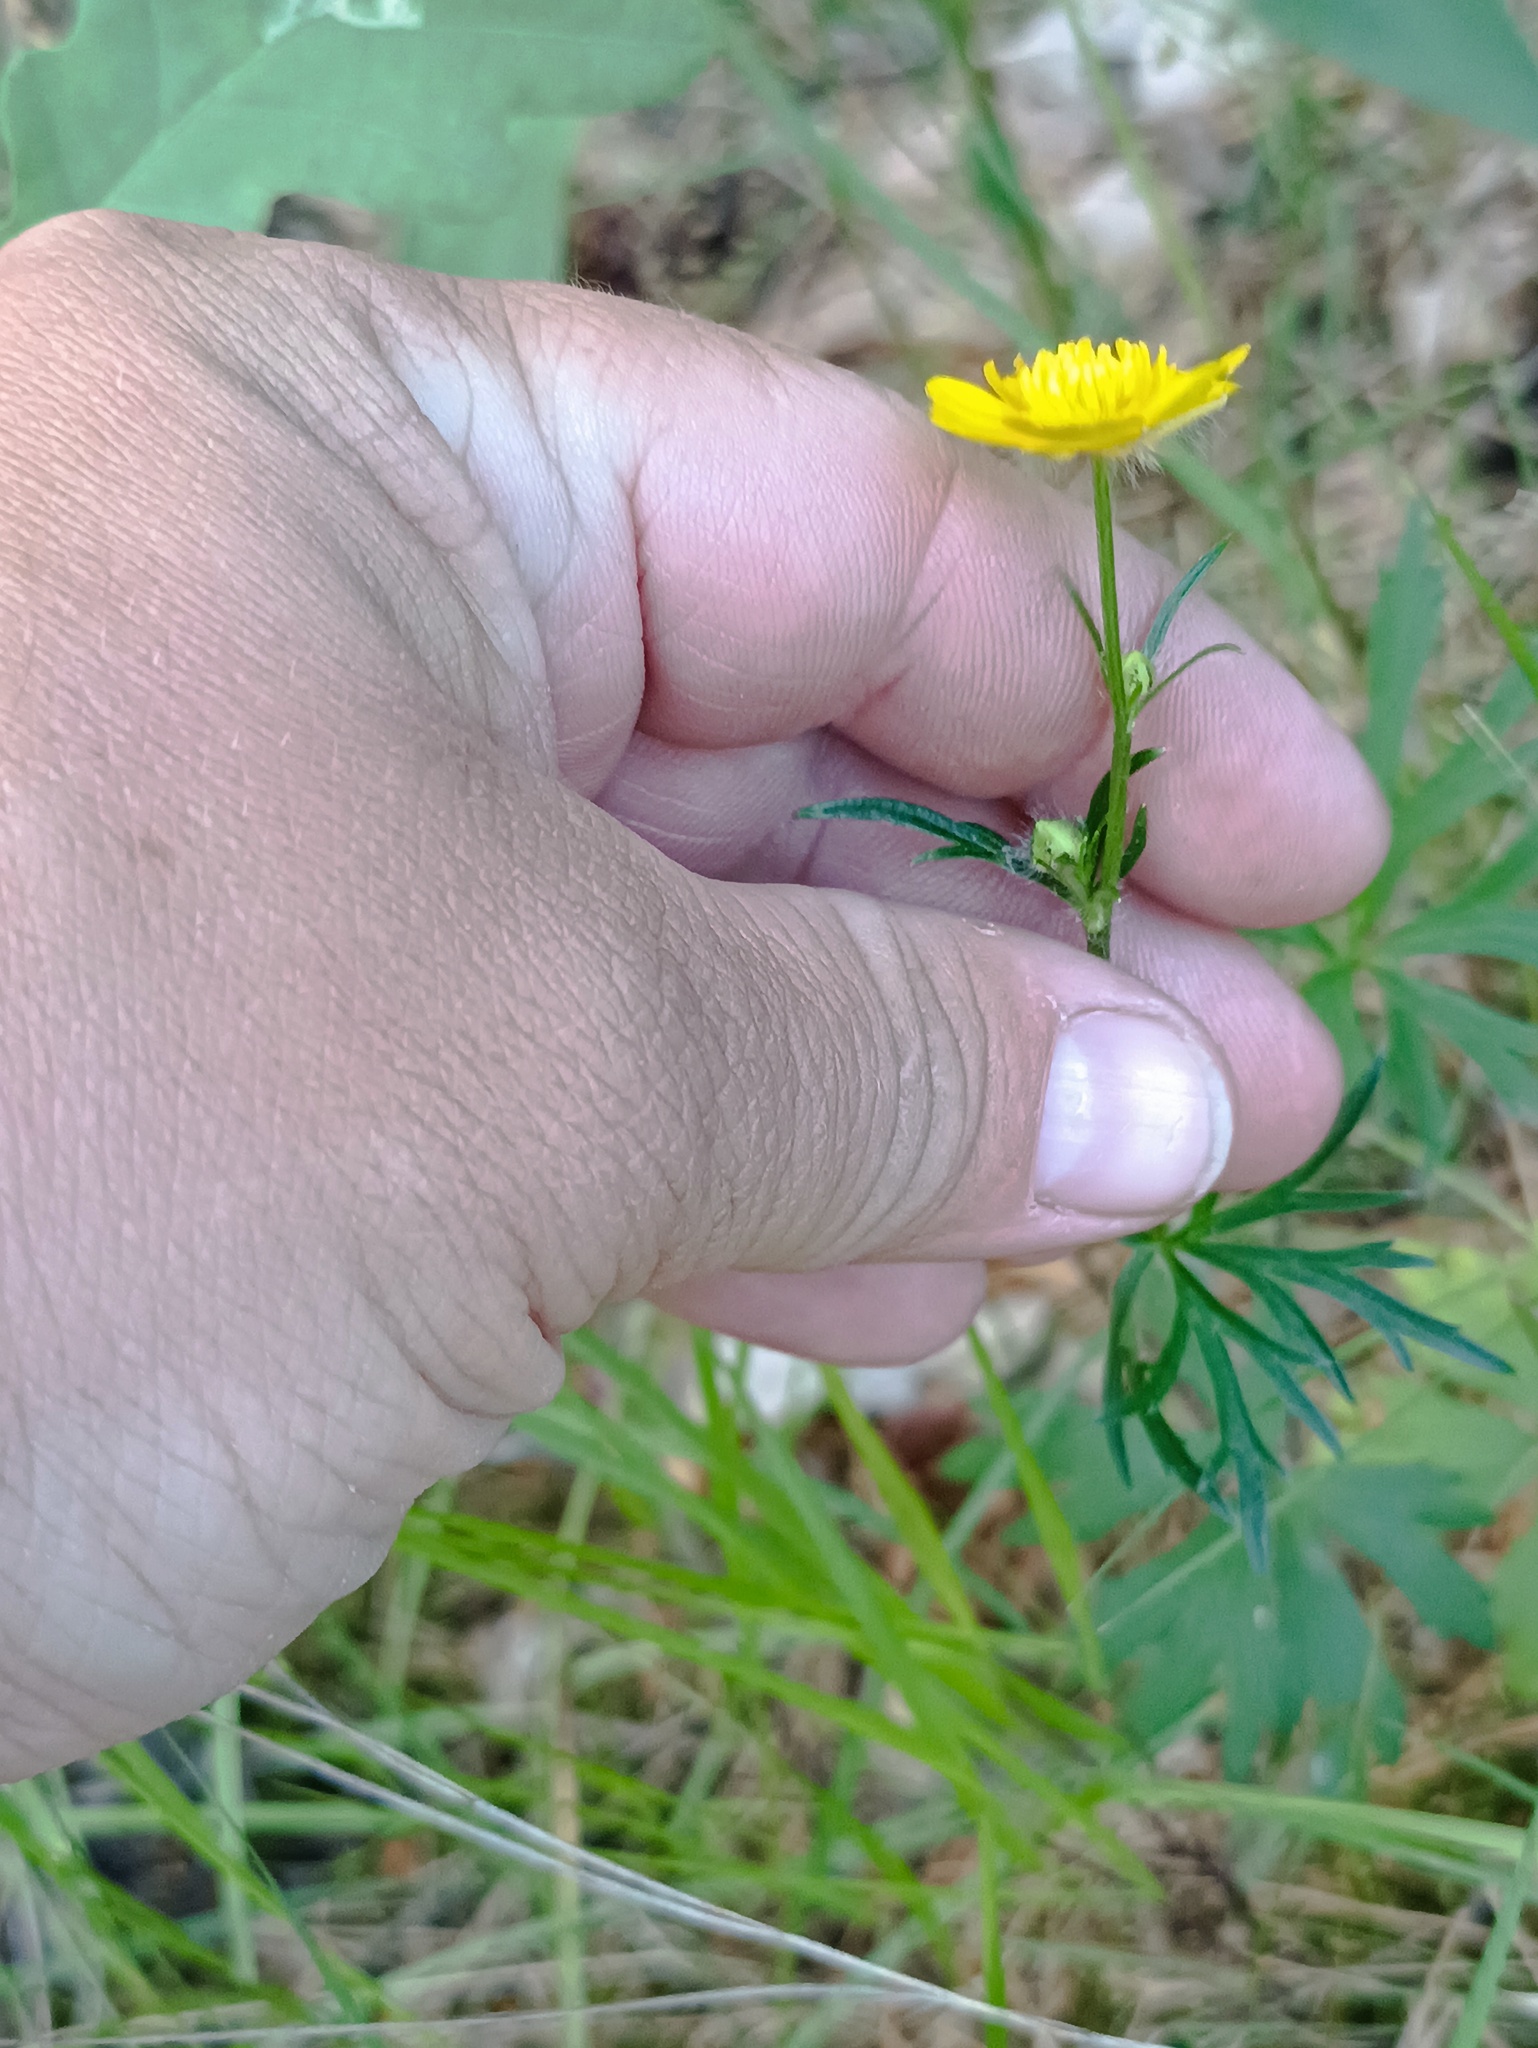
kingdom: Plantae
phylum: Tracheophyta
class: Magnoliopsida
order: Ranunculales
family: Ranunculaceae
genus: Ranunculus
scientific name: Ranunculus polyanthemos
